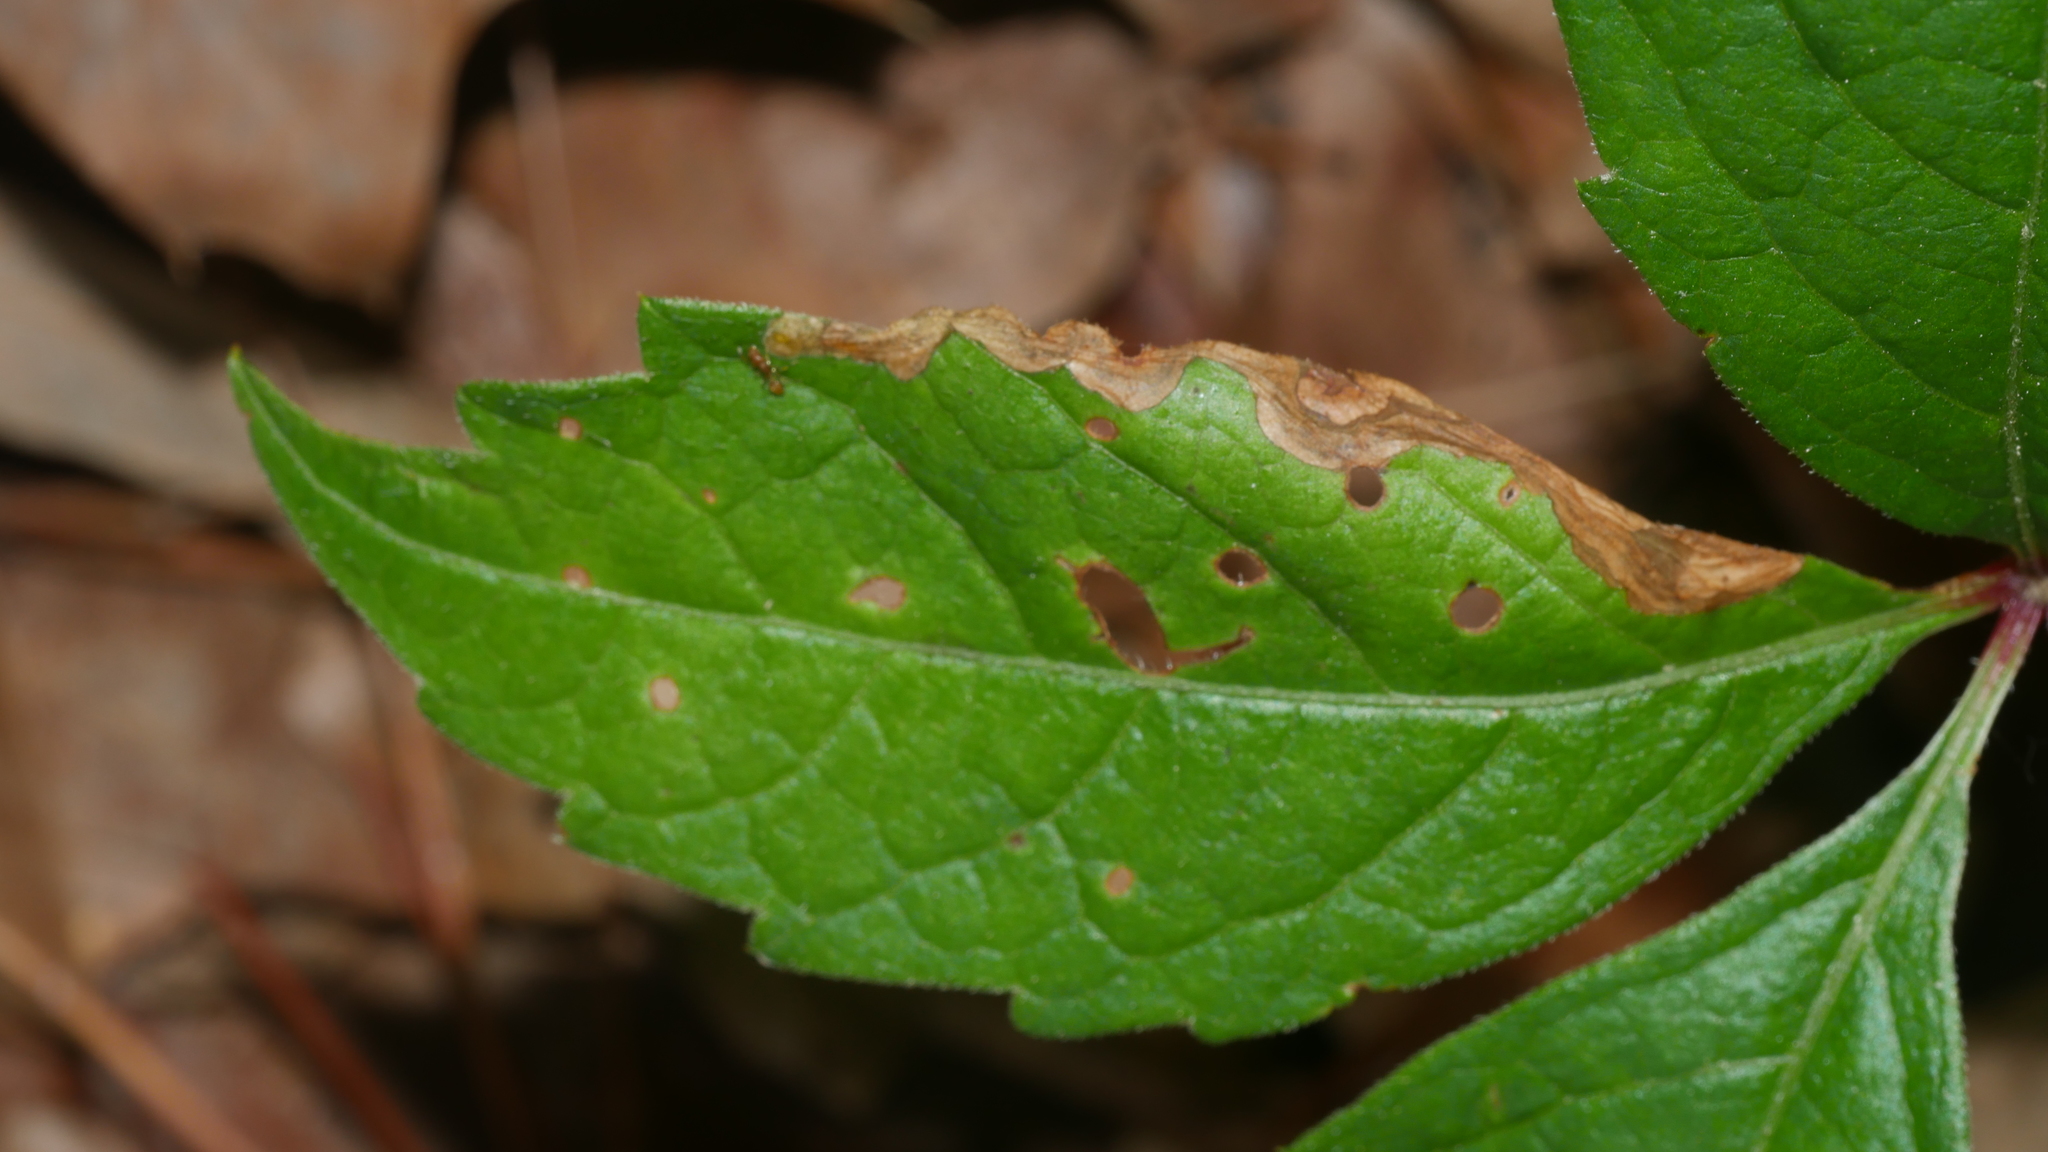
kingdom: Animalia
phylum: Arthropoda
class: Insecta
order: Coleoptera
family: Curculionidae
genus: Orchestomerus
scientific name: Orchestomerus eisemani
